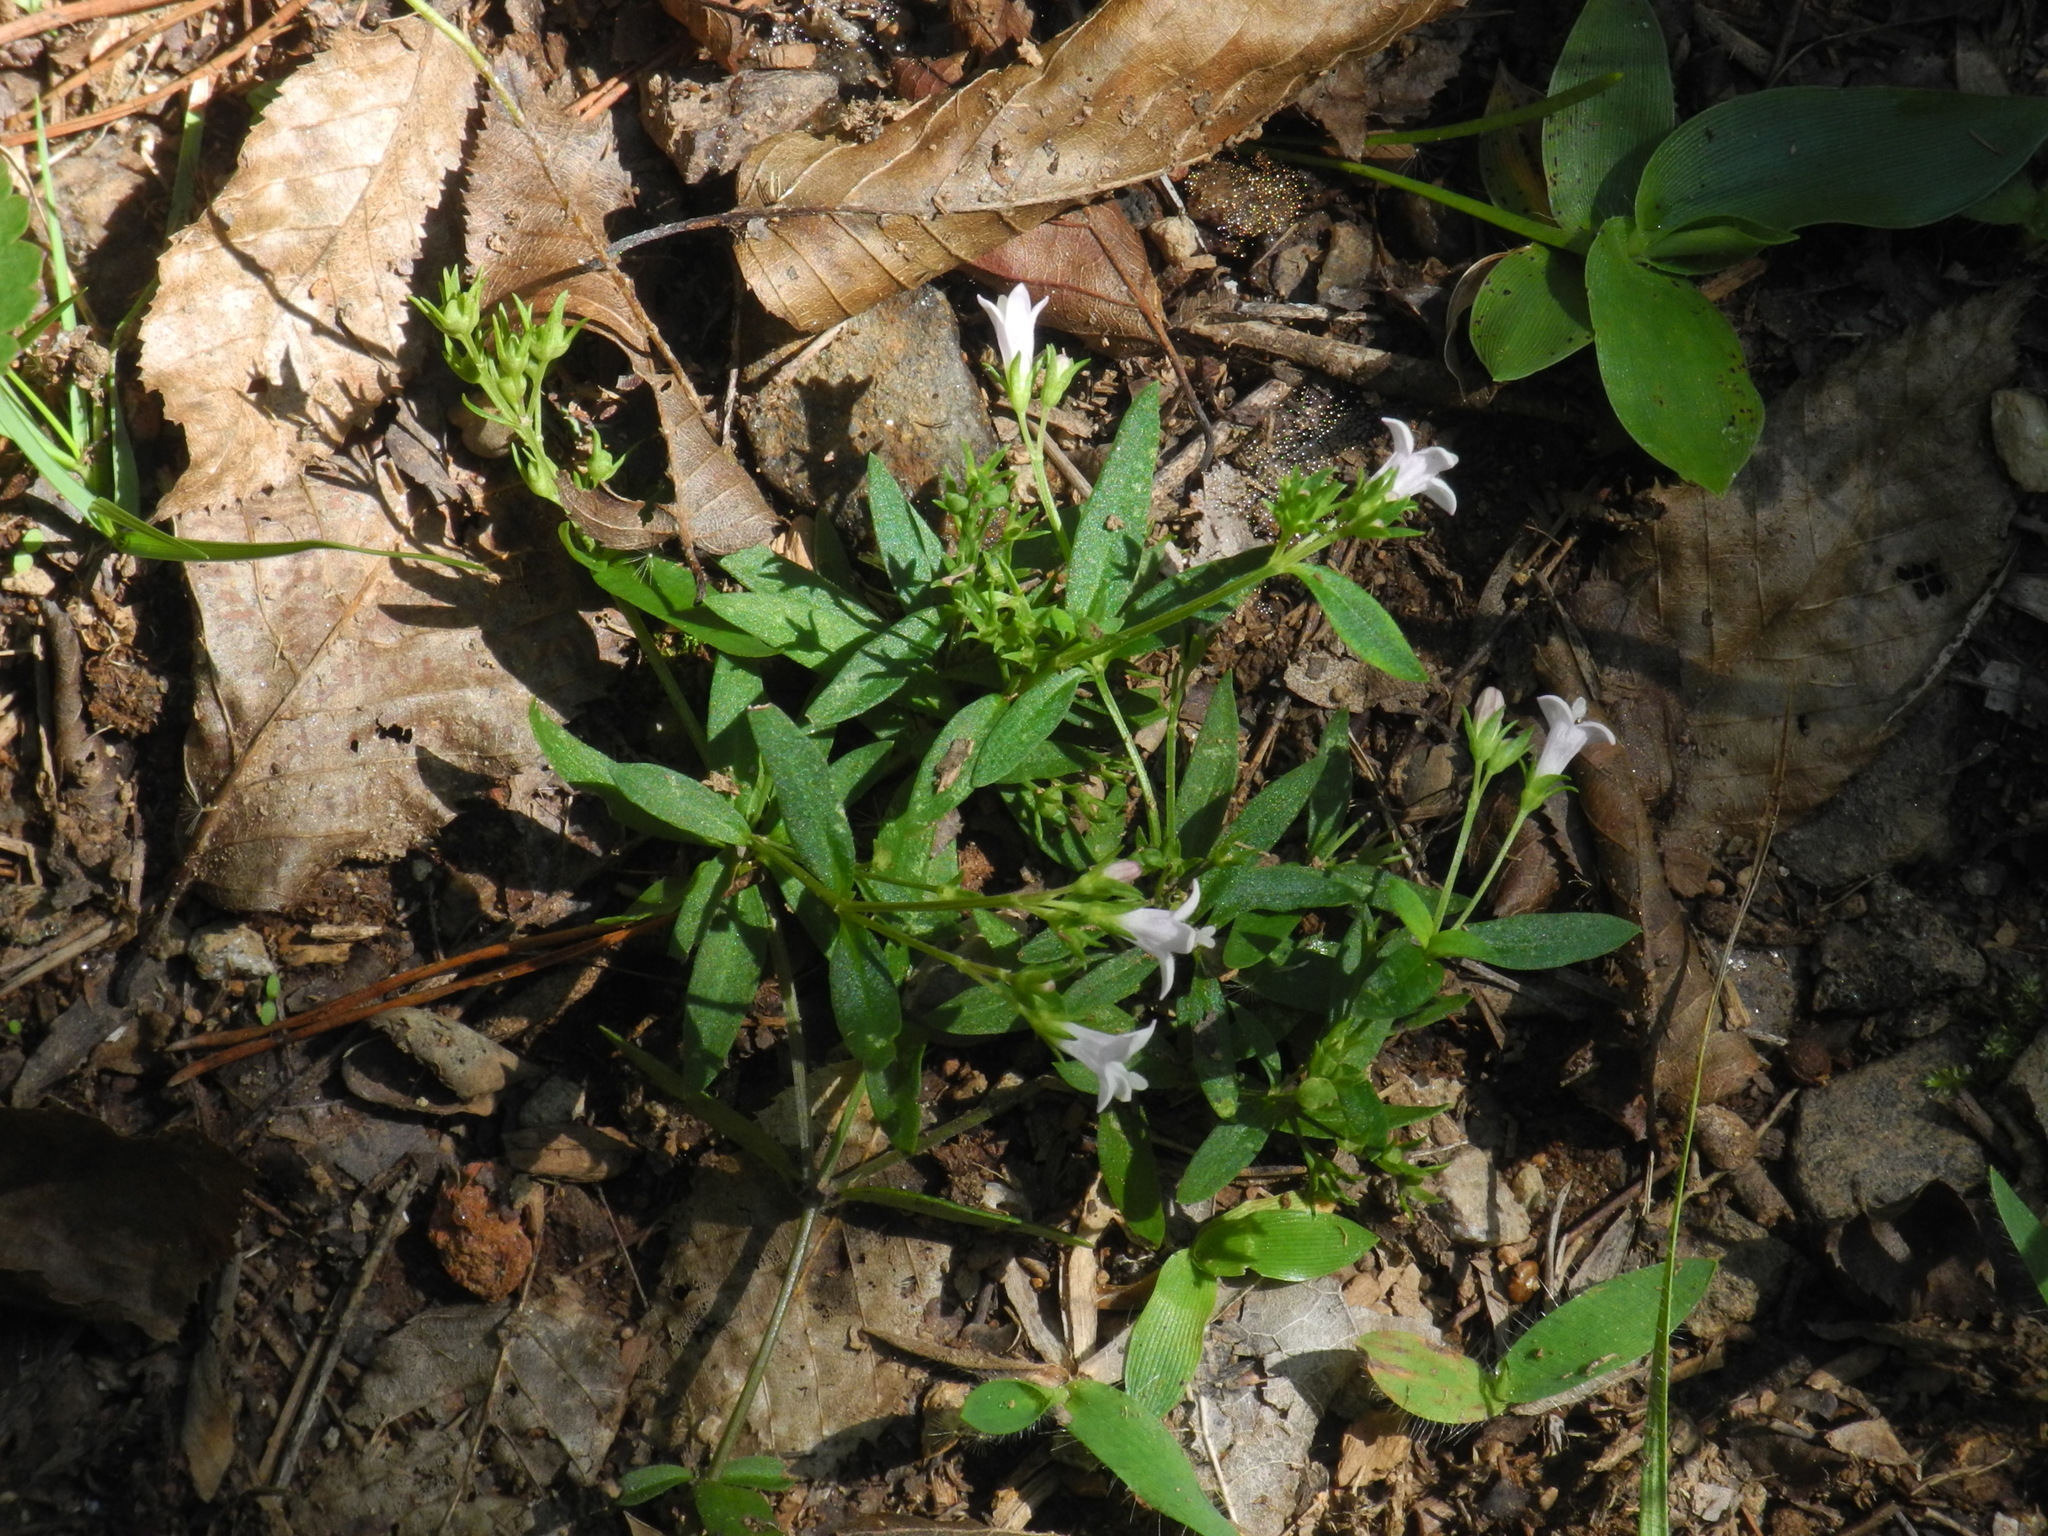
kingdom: Plantae
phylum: Tracheophyta
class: Magnoliopsida
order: Gentianales
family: Rubiaceae
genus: Houstonia
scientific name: Houstonia longifolia
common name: Long-leaved bluets
